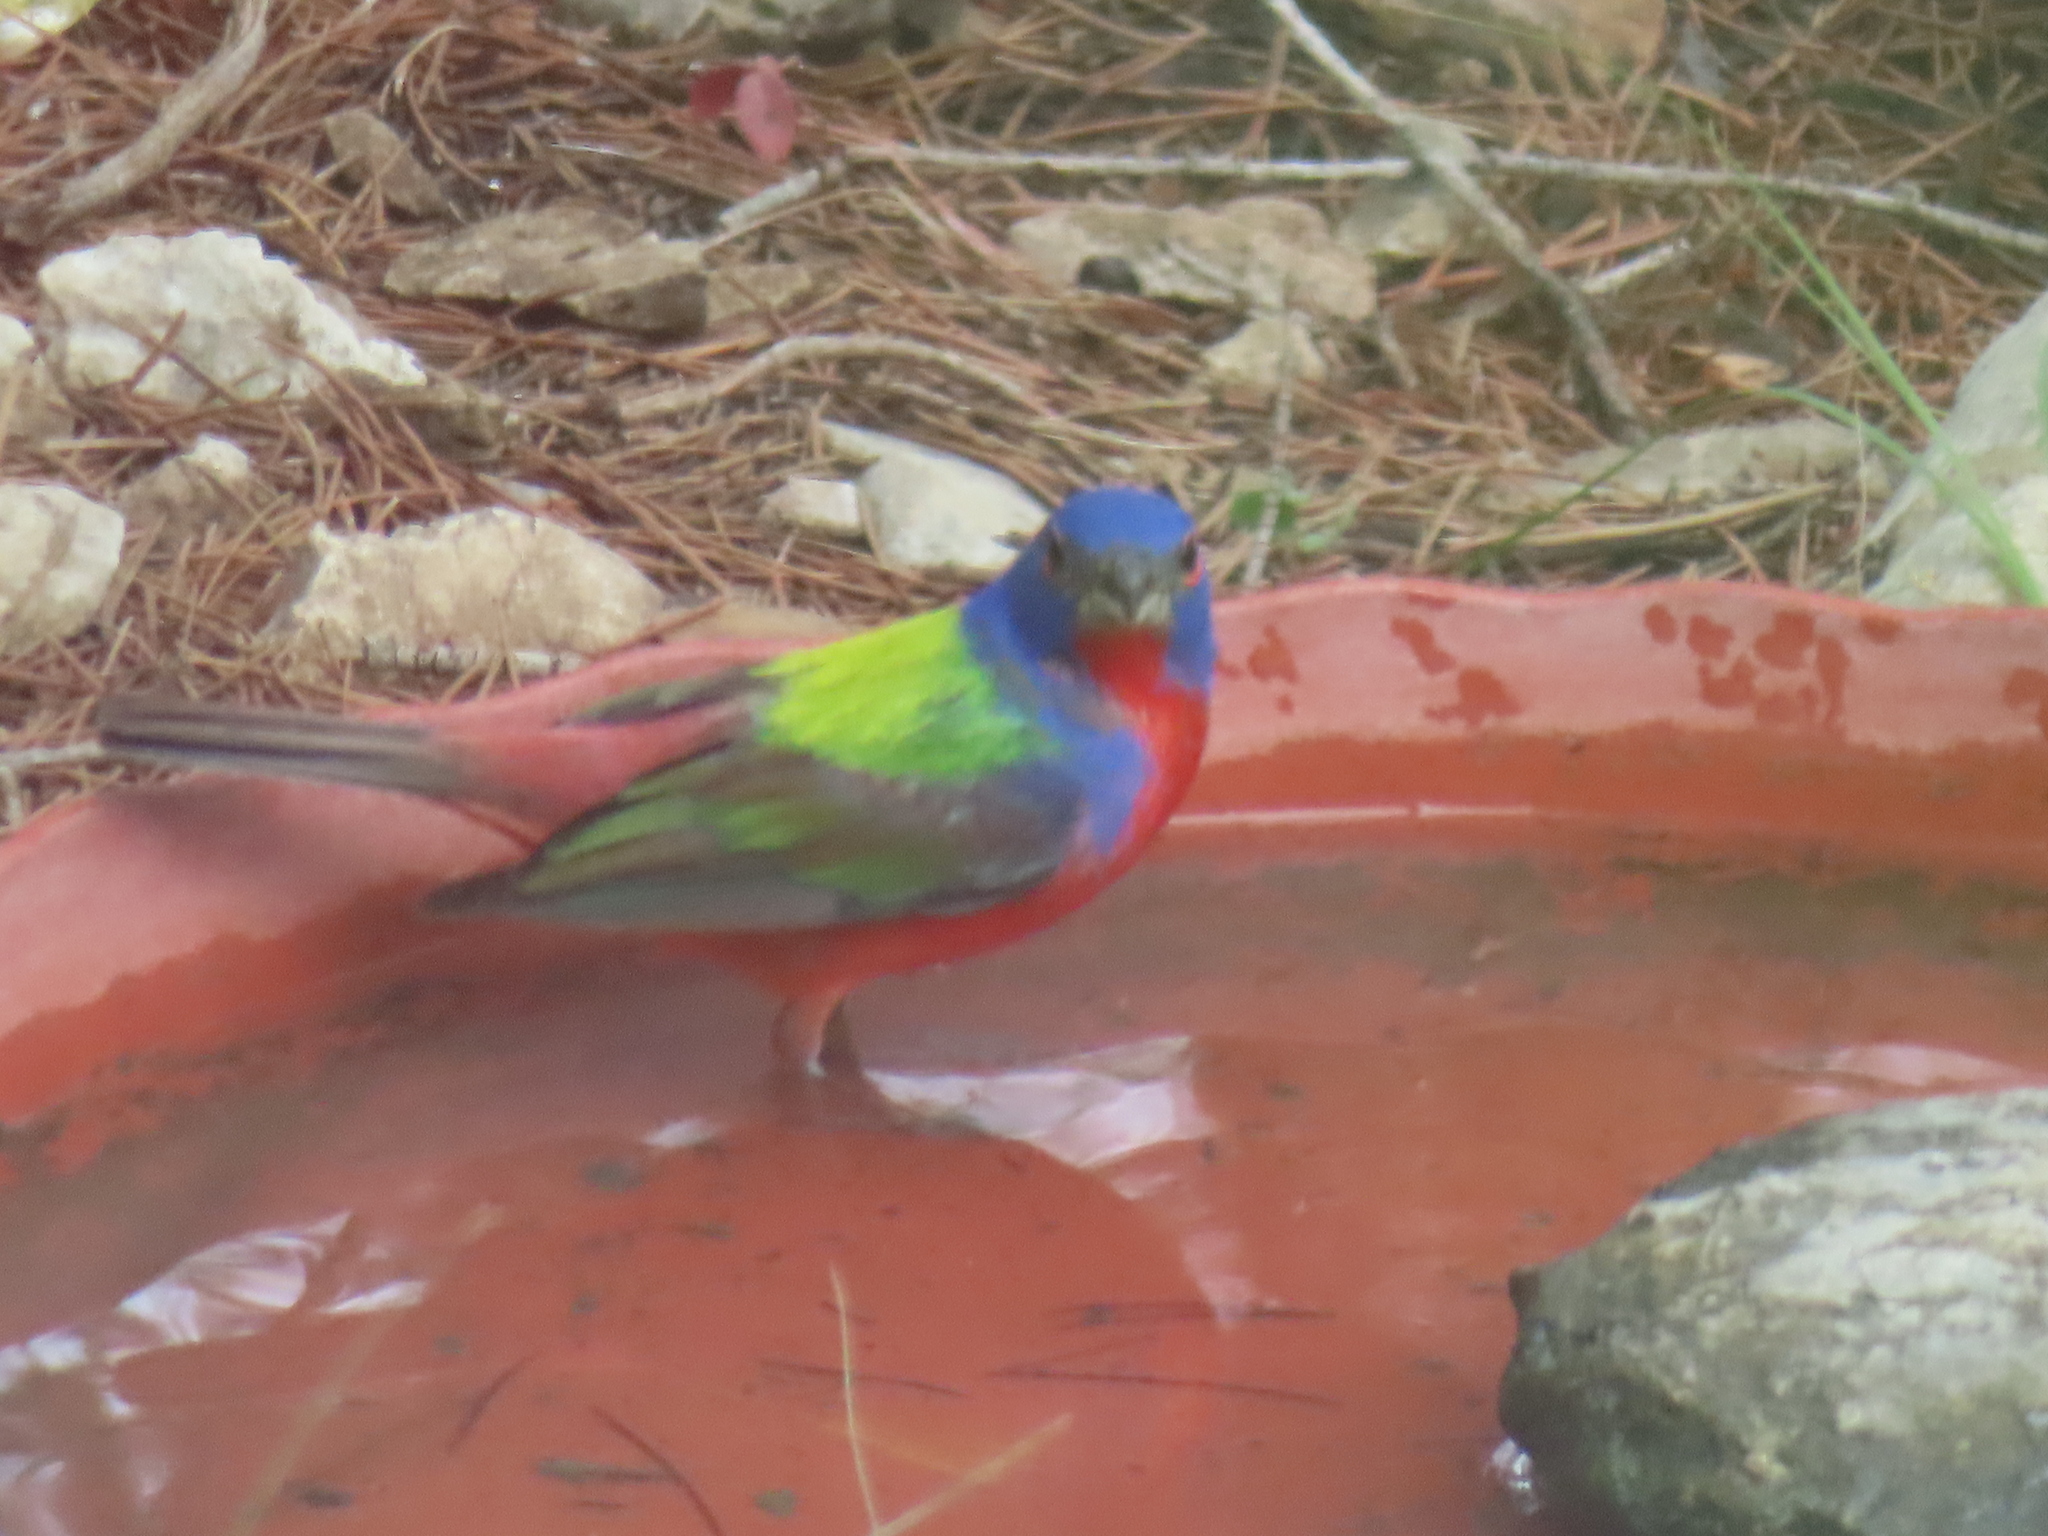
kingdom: Animalia
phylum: Chordata
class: Aves
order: Passeriformes
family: Cardinalidae
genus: Passerina
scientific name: Passerina ciris
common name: Painted bunting
